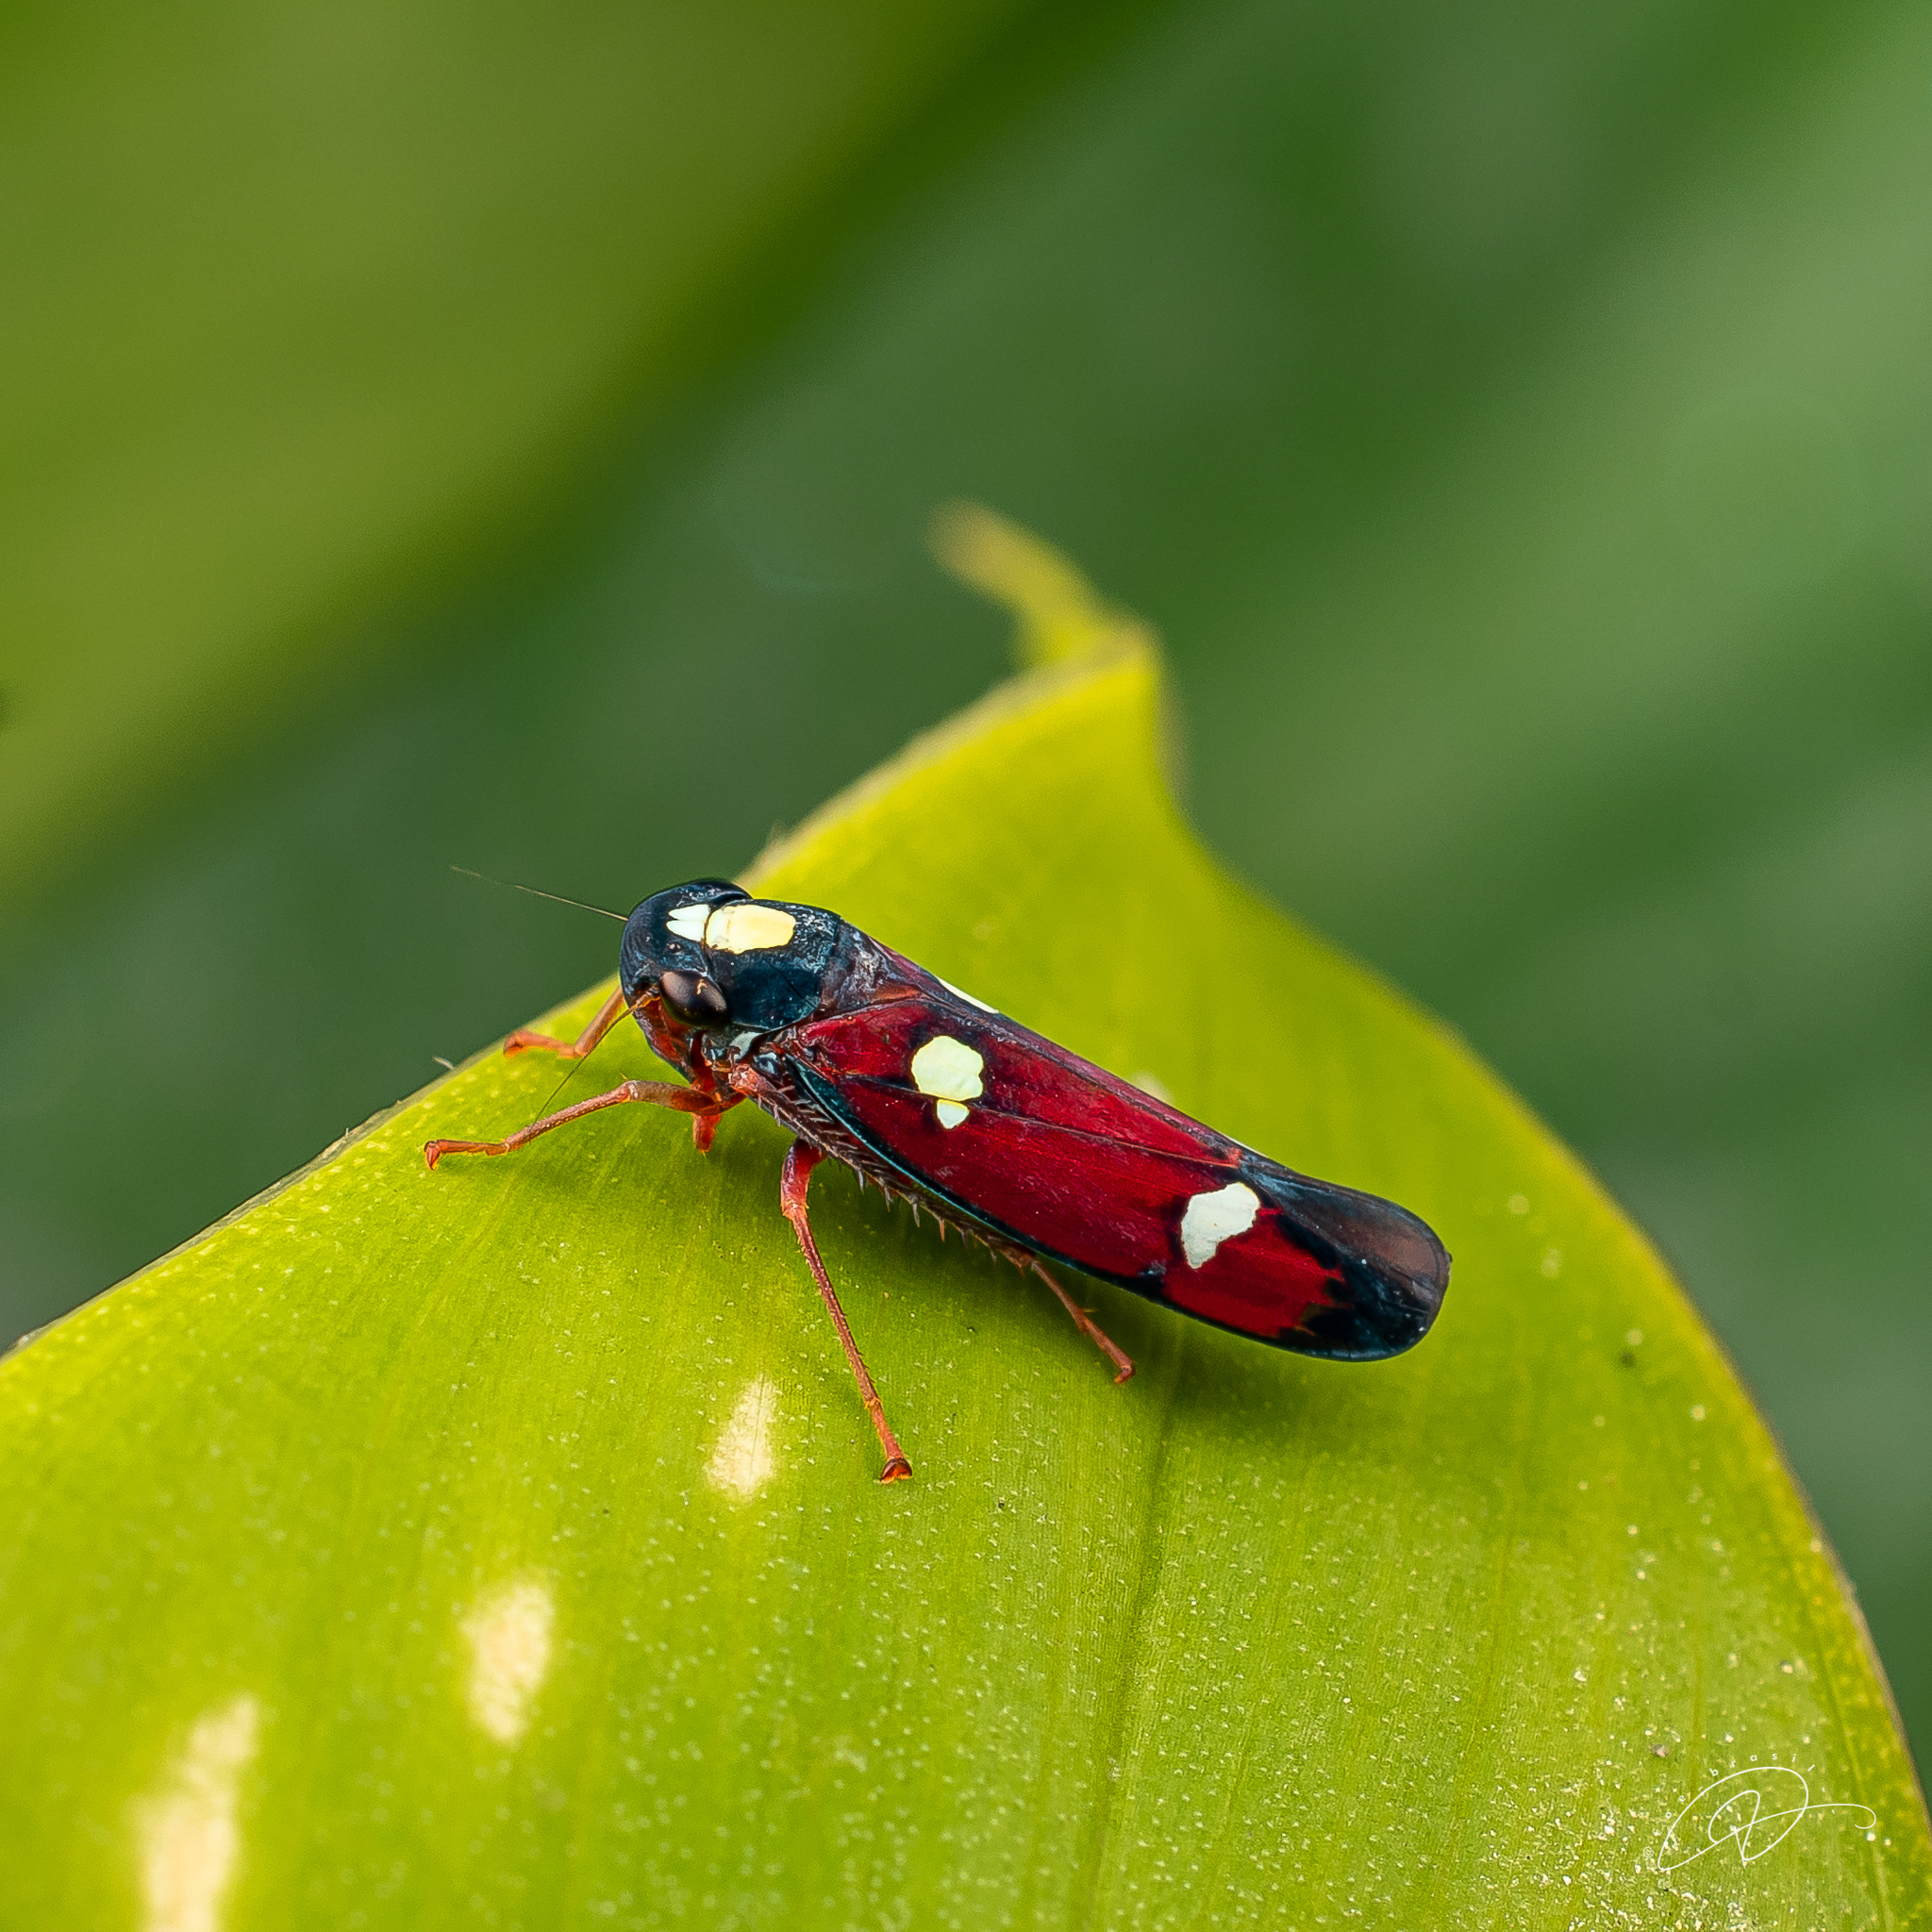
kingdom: Animalia
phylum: Arthropoda
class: Insecta
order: Hemiptera
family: Cicadellidae
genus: Erythrogonia
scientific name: Erythrogonia hertha
